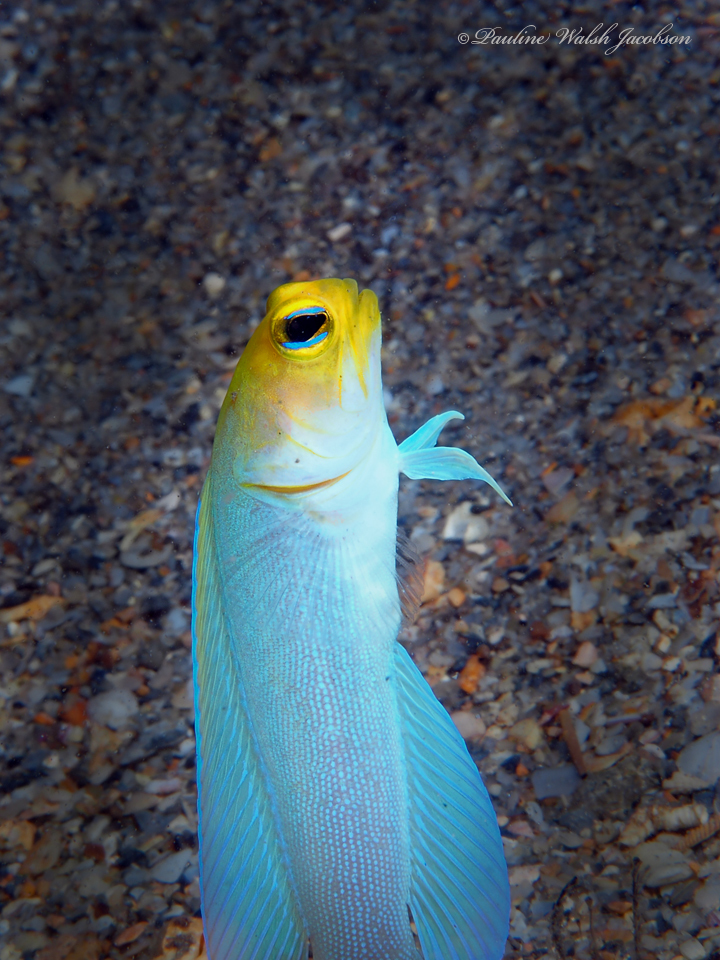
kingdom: Animalia
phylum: Chordata
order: Perciformes
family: Opistognathidae
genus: Opistognathus
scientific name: Opistognathus aurifrons
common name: Yellowhead jawfish
